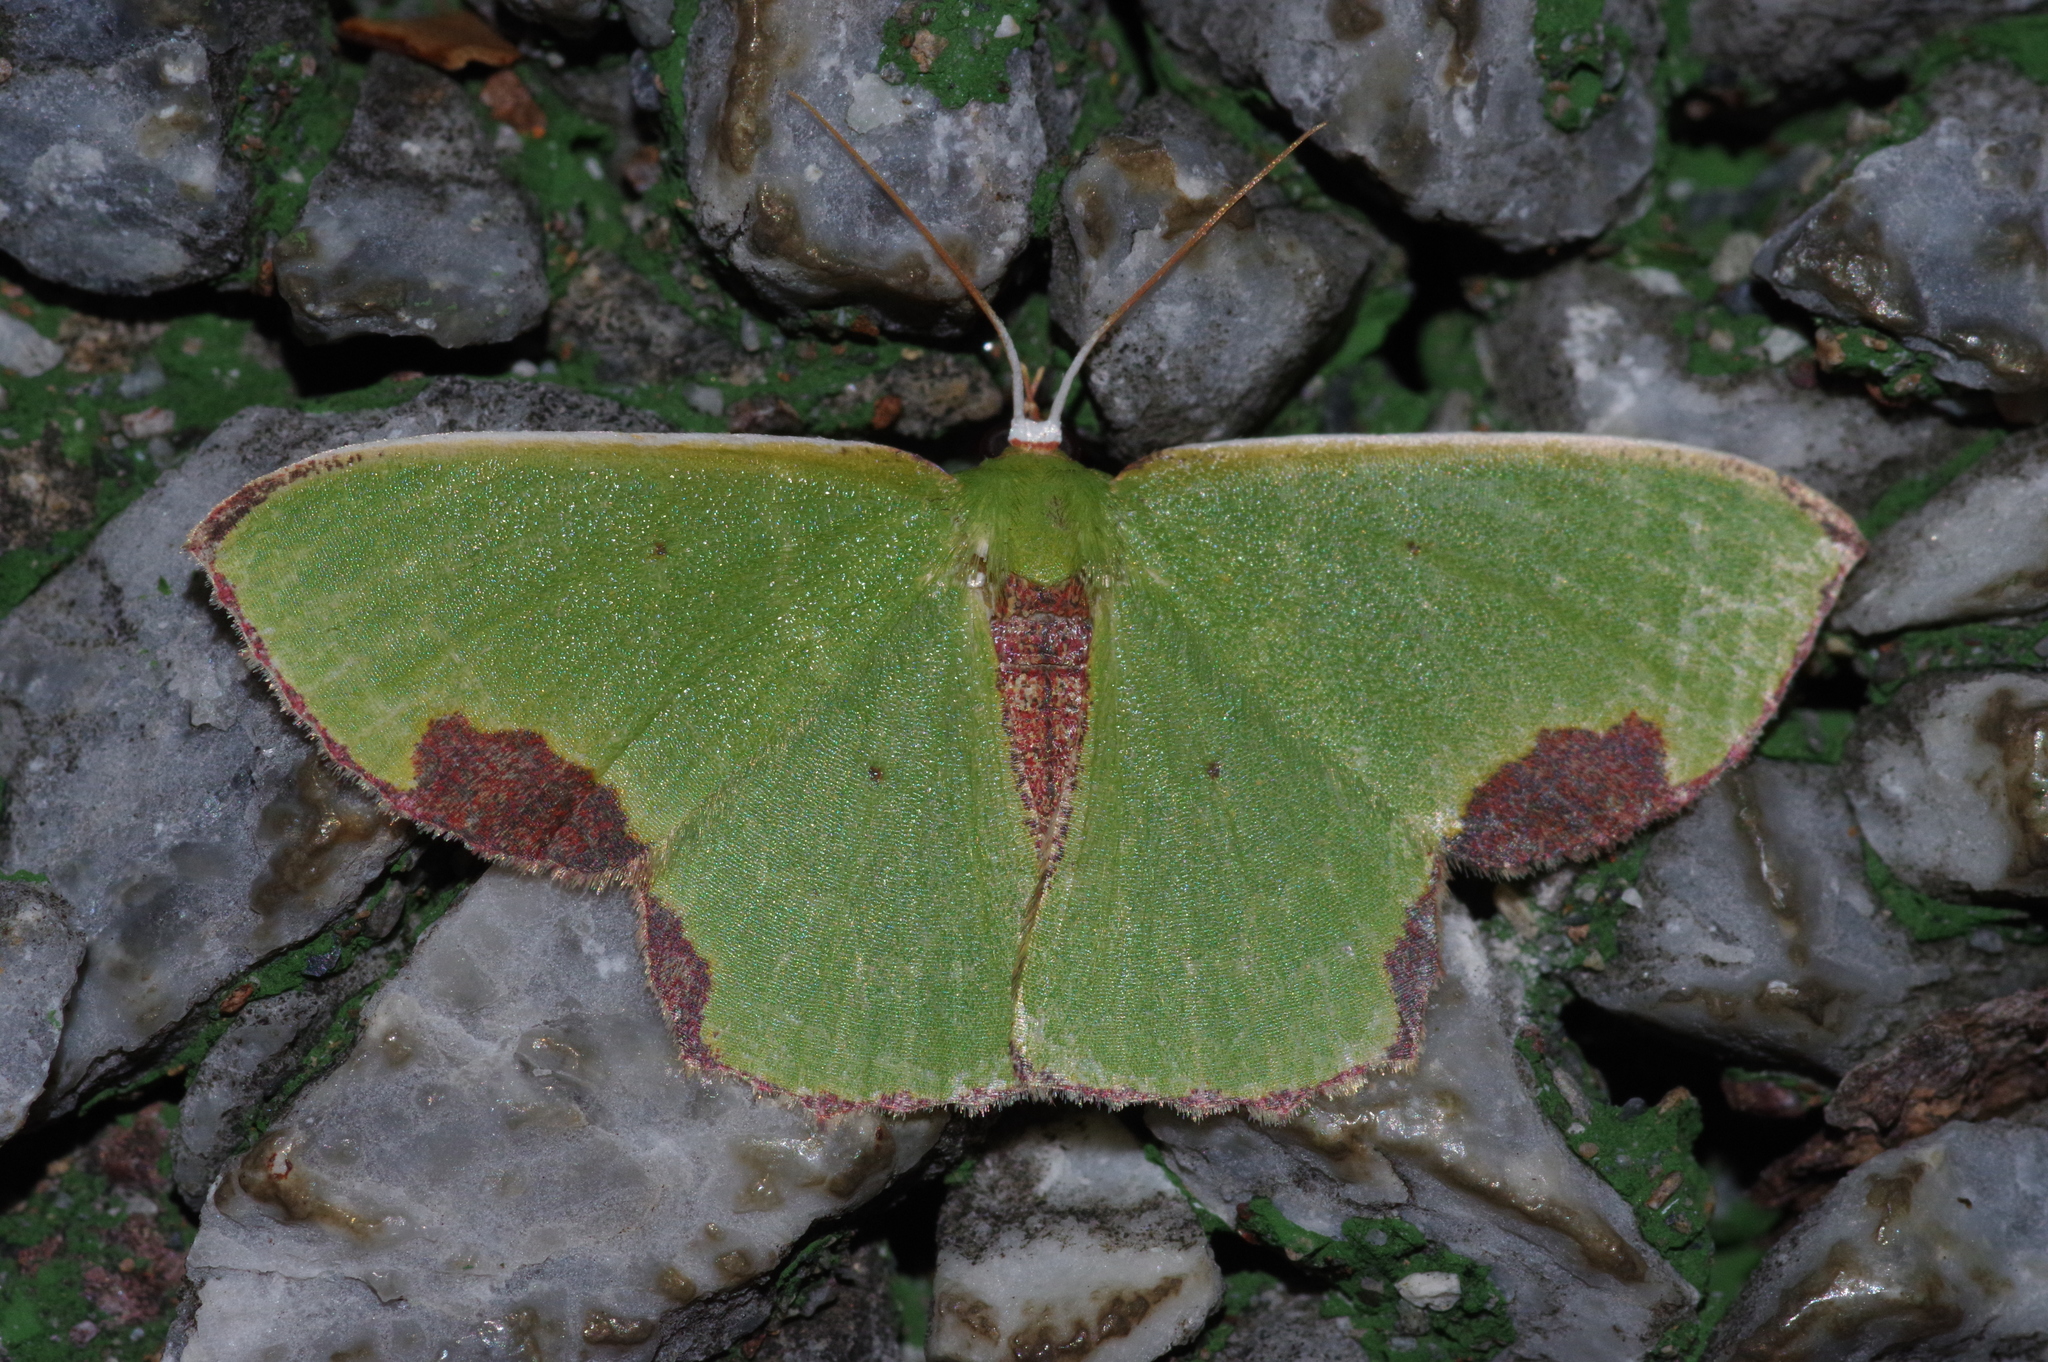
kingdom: Animalia
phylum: Arthropoda
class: Insecta
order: Lepidoptera
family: Geometridae
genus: Spaniocentra
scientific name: Spaniocentra hollowayi
